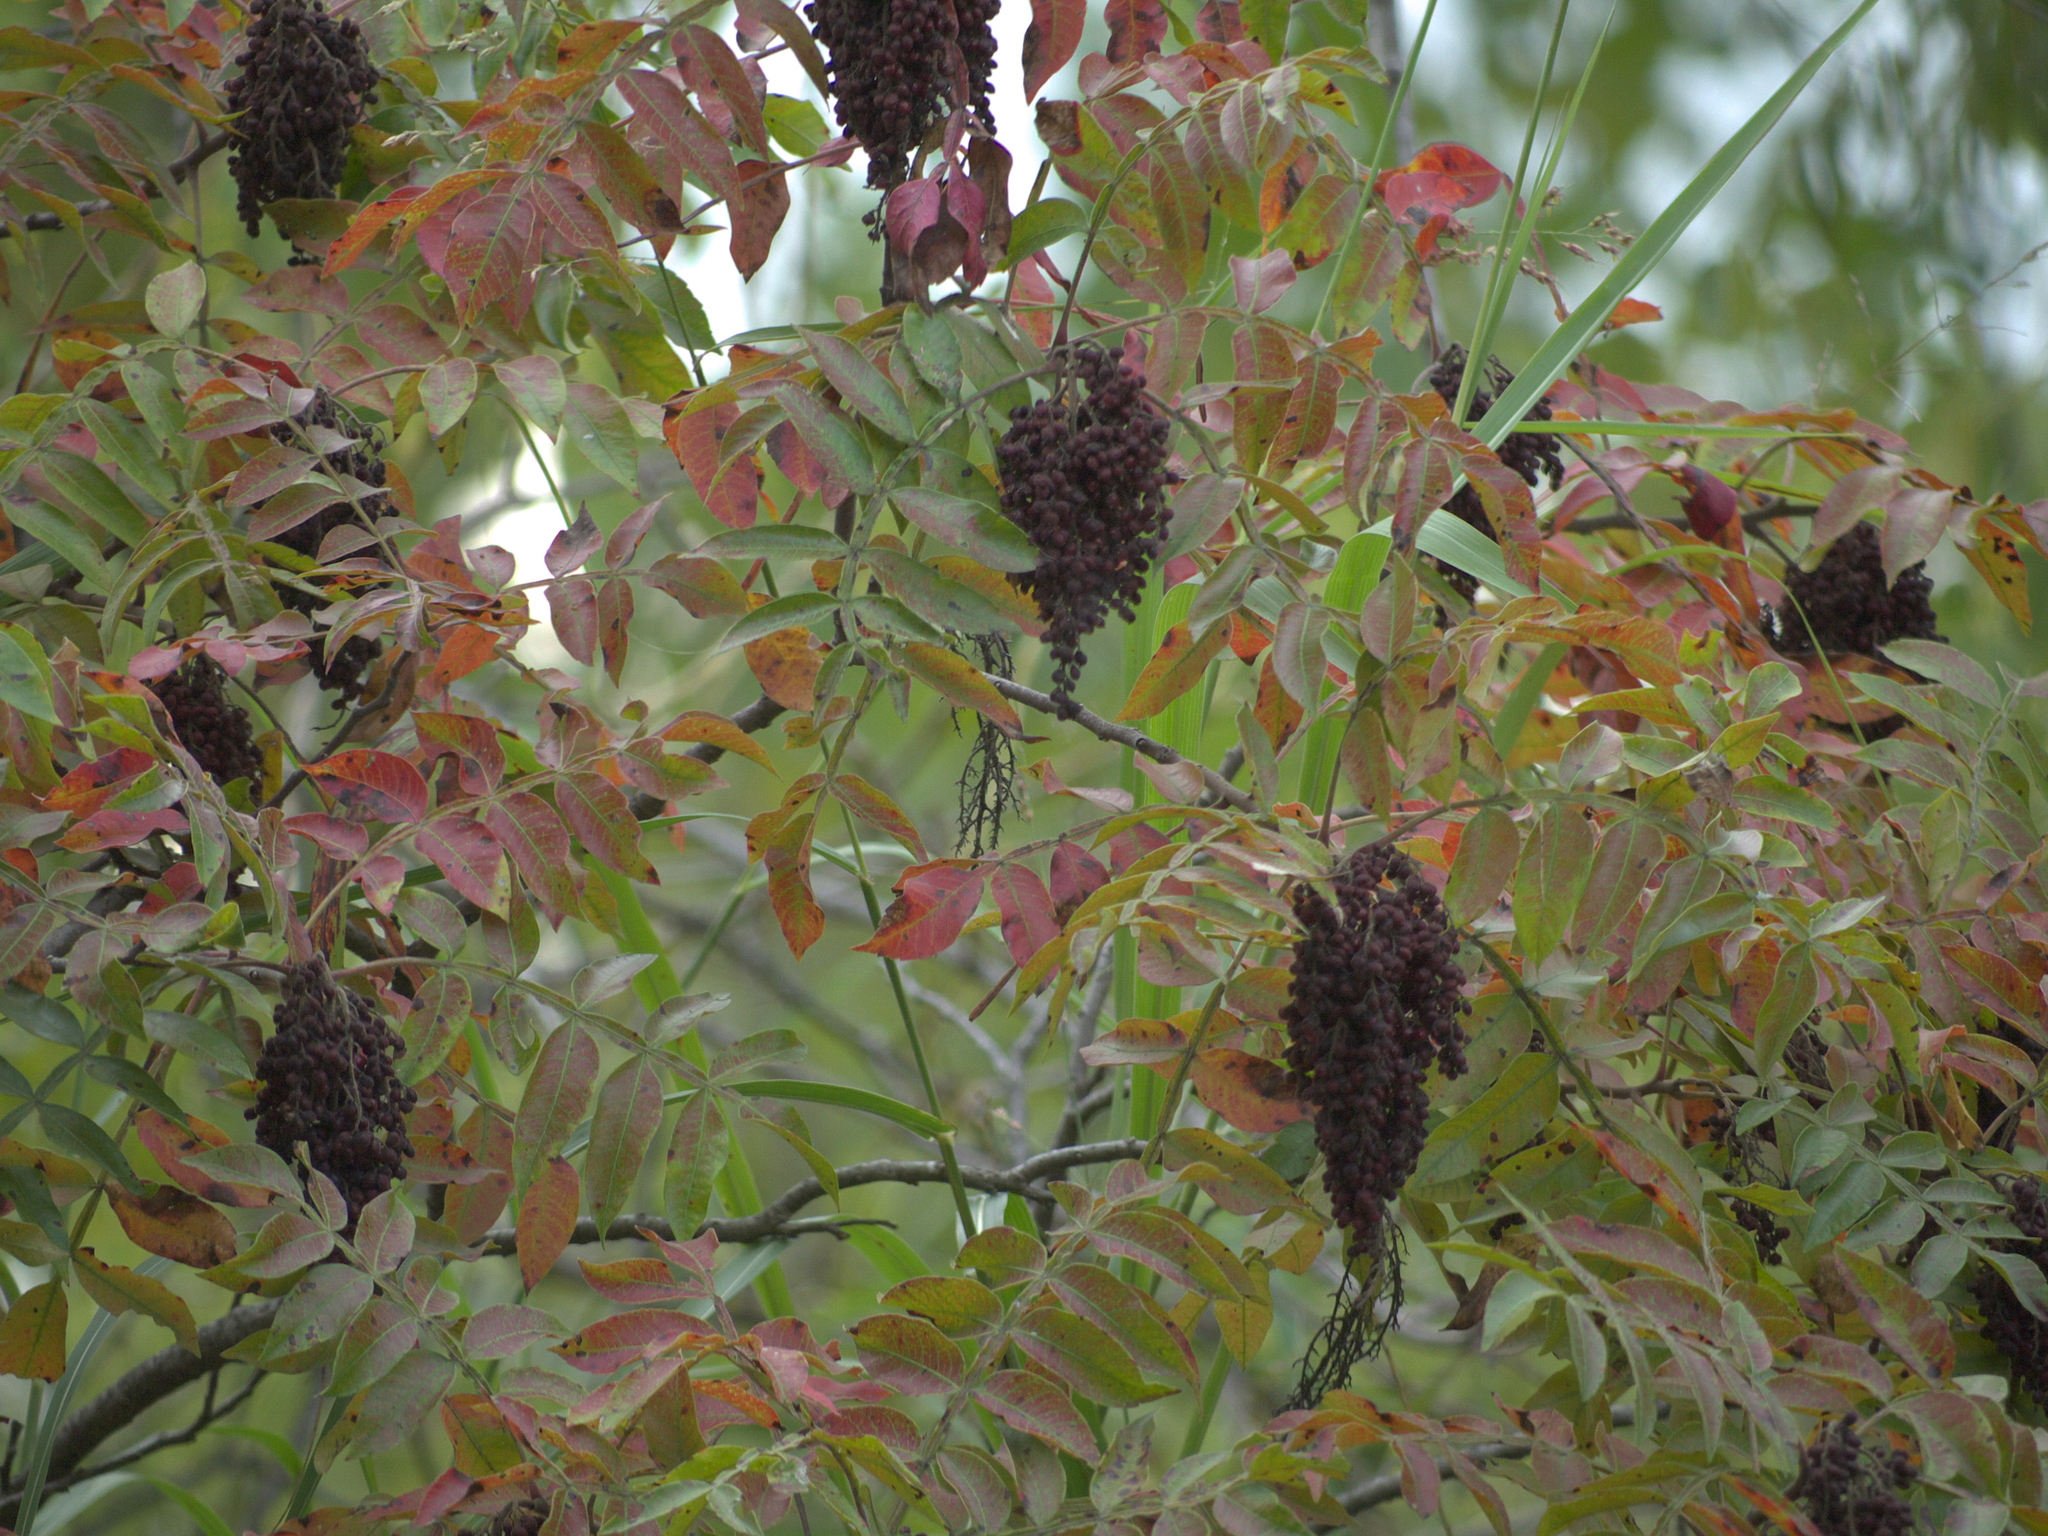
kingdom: Plantae
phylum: Tracheophyta
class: Magnoliopsida
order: Sapindales
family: Anacardiaceae
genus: Rhus
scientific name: Rhus copallina
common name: Shining sumac
